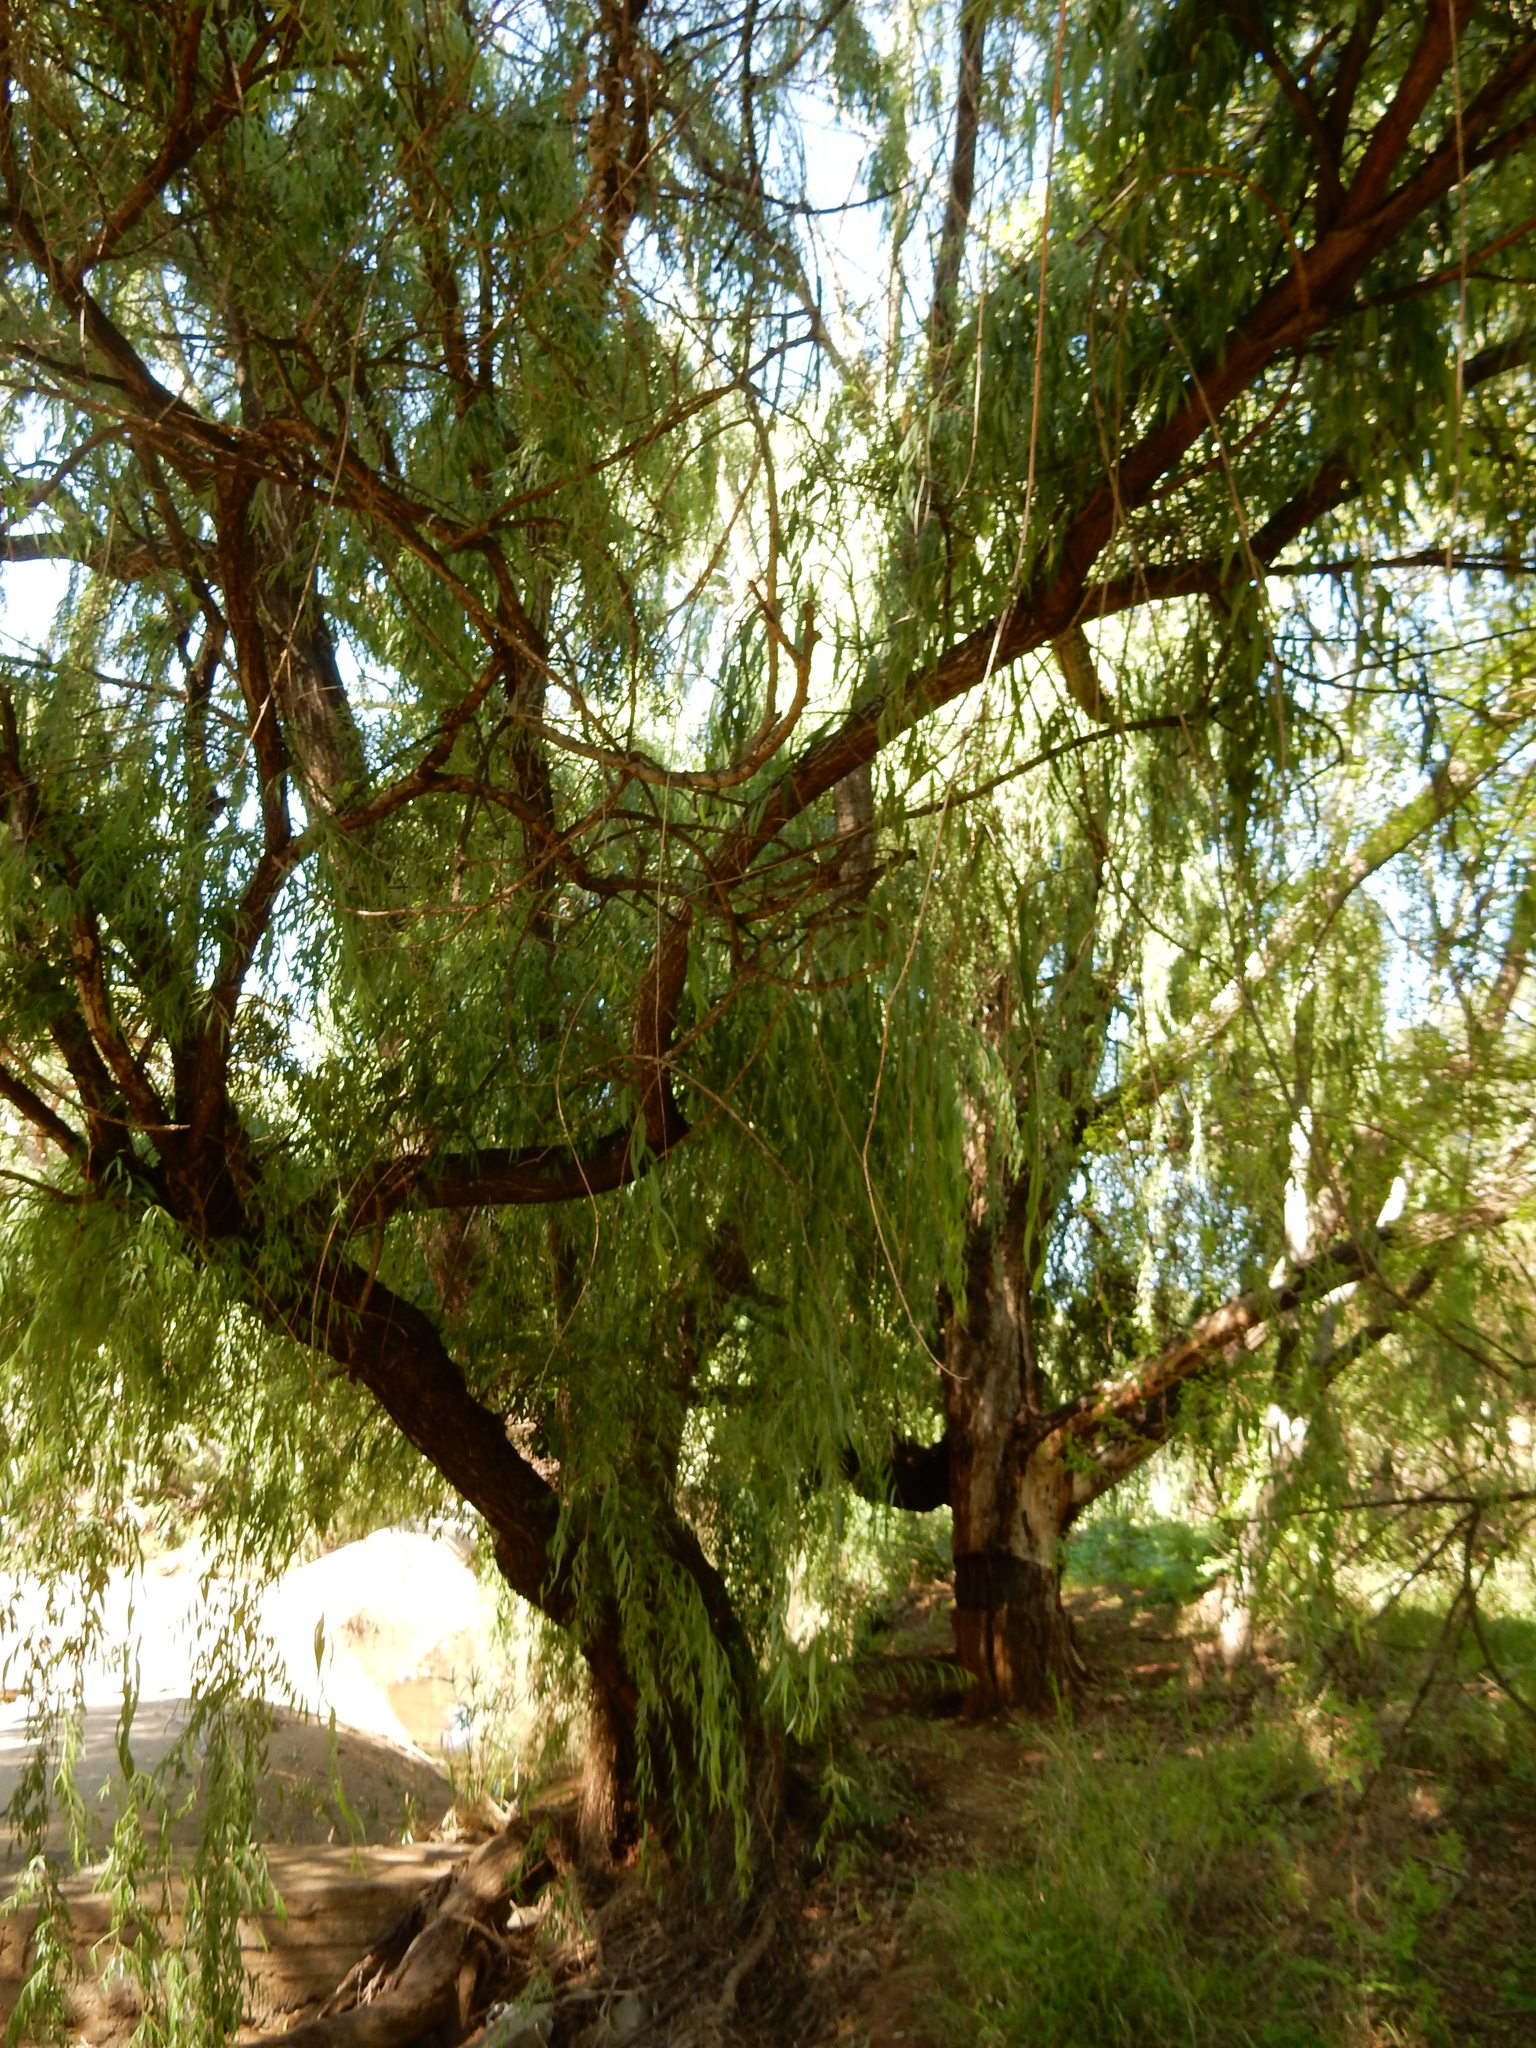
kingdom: Plantae
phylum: Tracheophyta
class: Magnoliopsida
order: Malpighiales
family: Salicaceae
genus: Salix
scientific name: Salix babylonica
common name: Weeping willow
